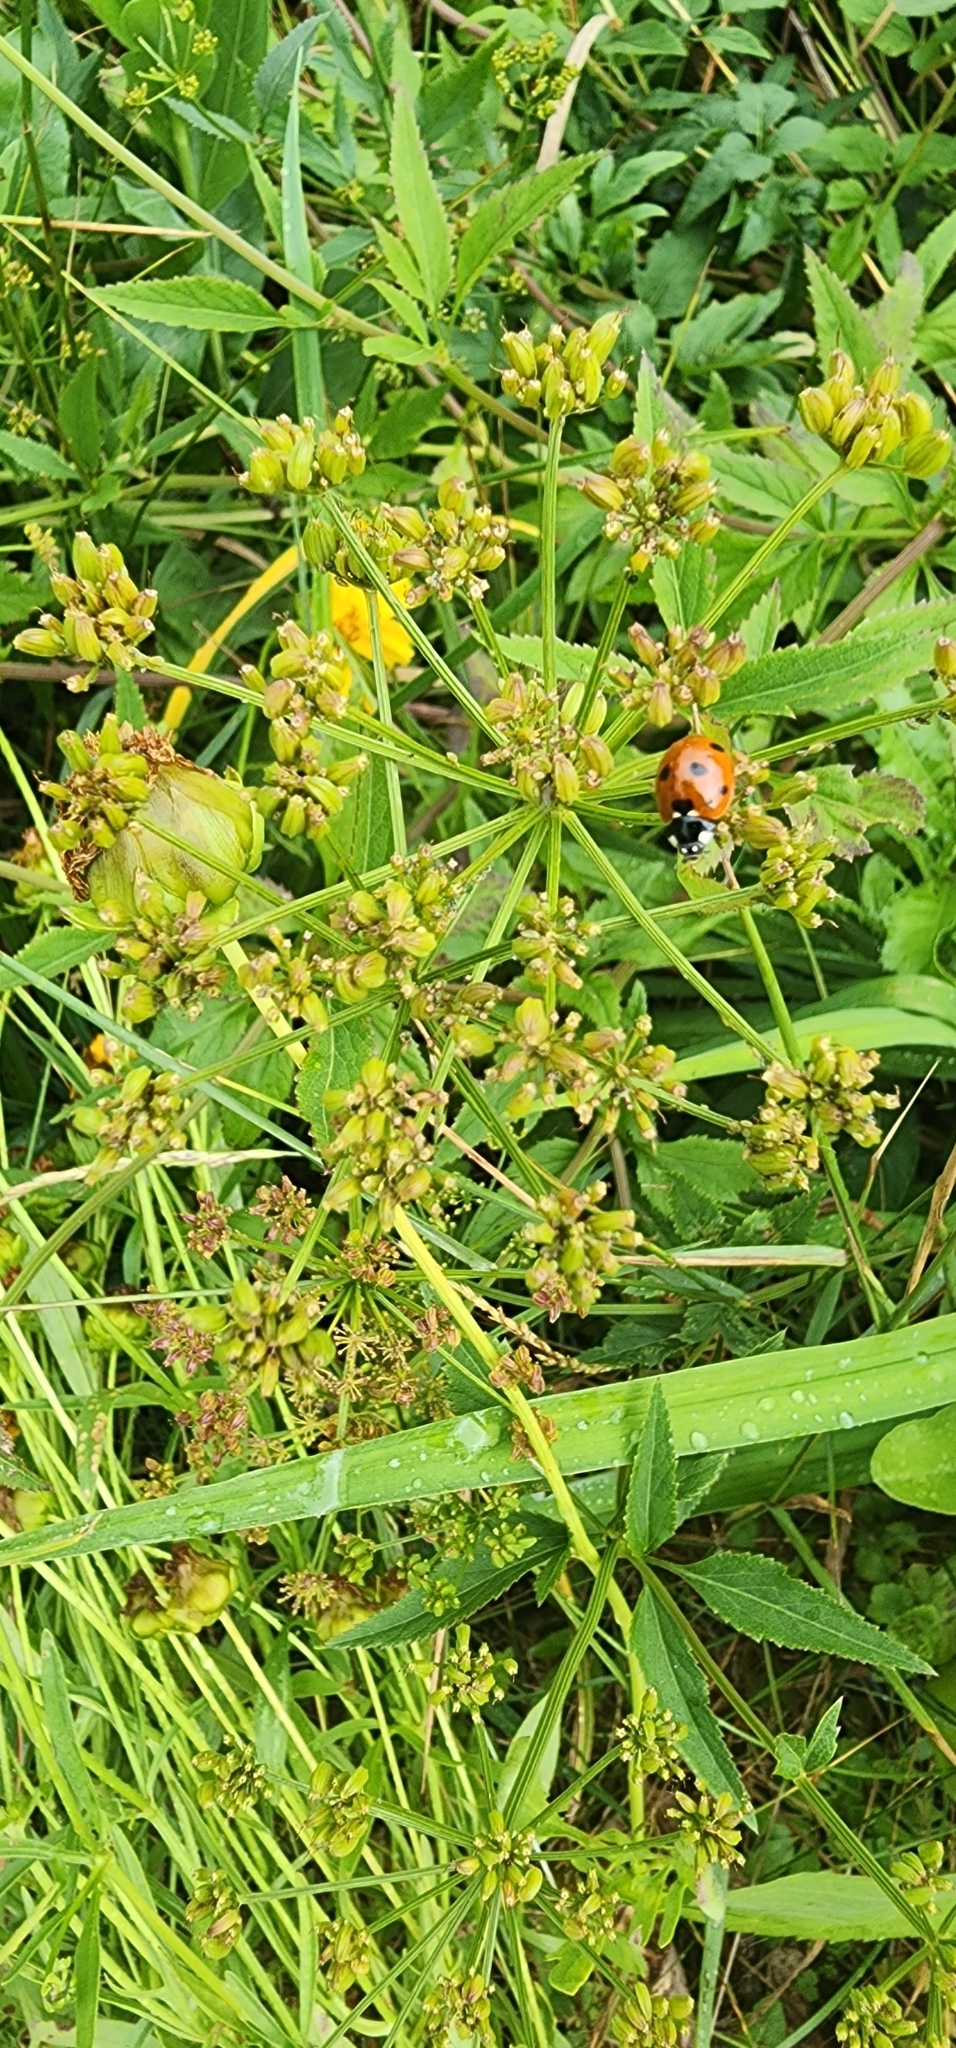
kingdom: Animalia
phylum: Arthropoda
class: Insecta
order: Coleoptera
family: Coccinellidae
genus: Coccinella
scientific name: Coccinella septempunctata
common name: Sevenspotted lady beetle
